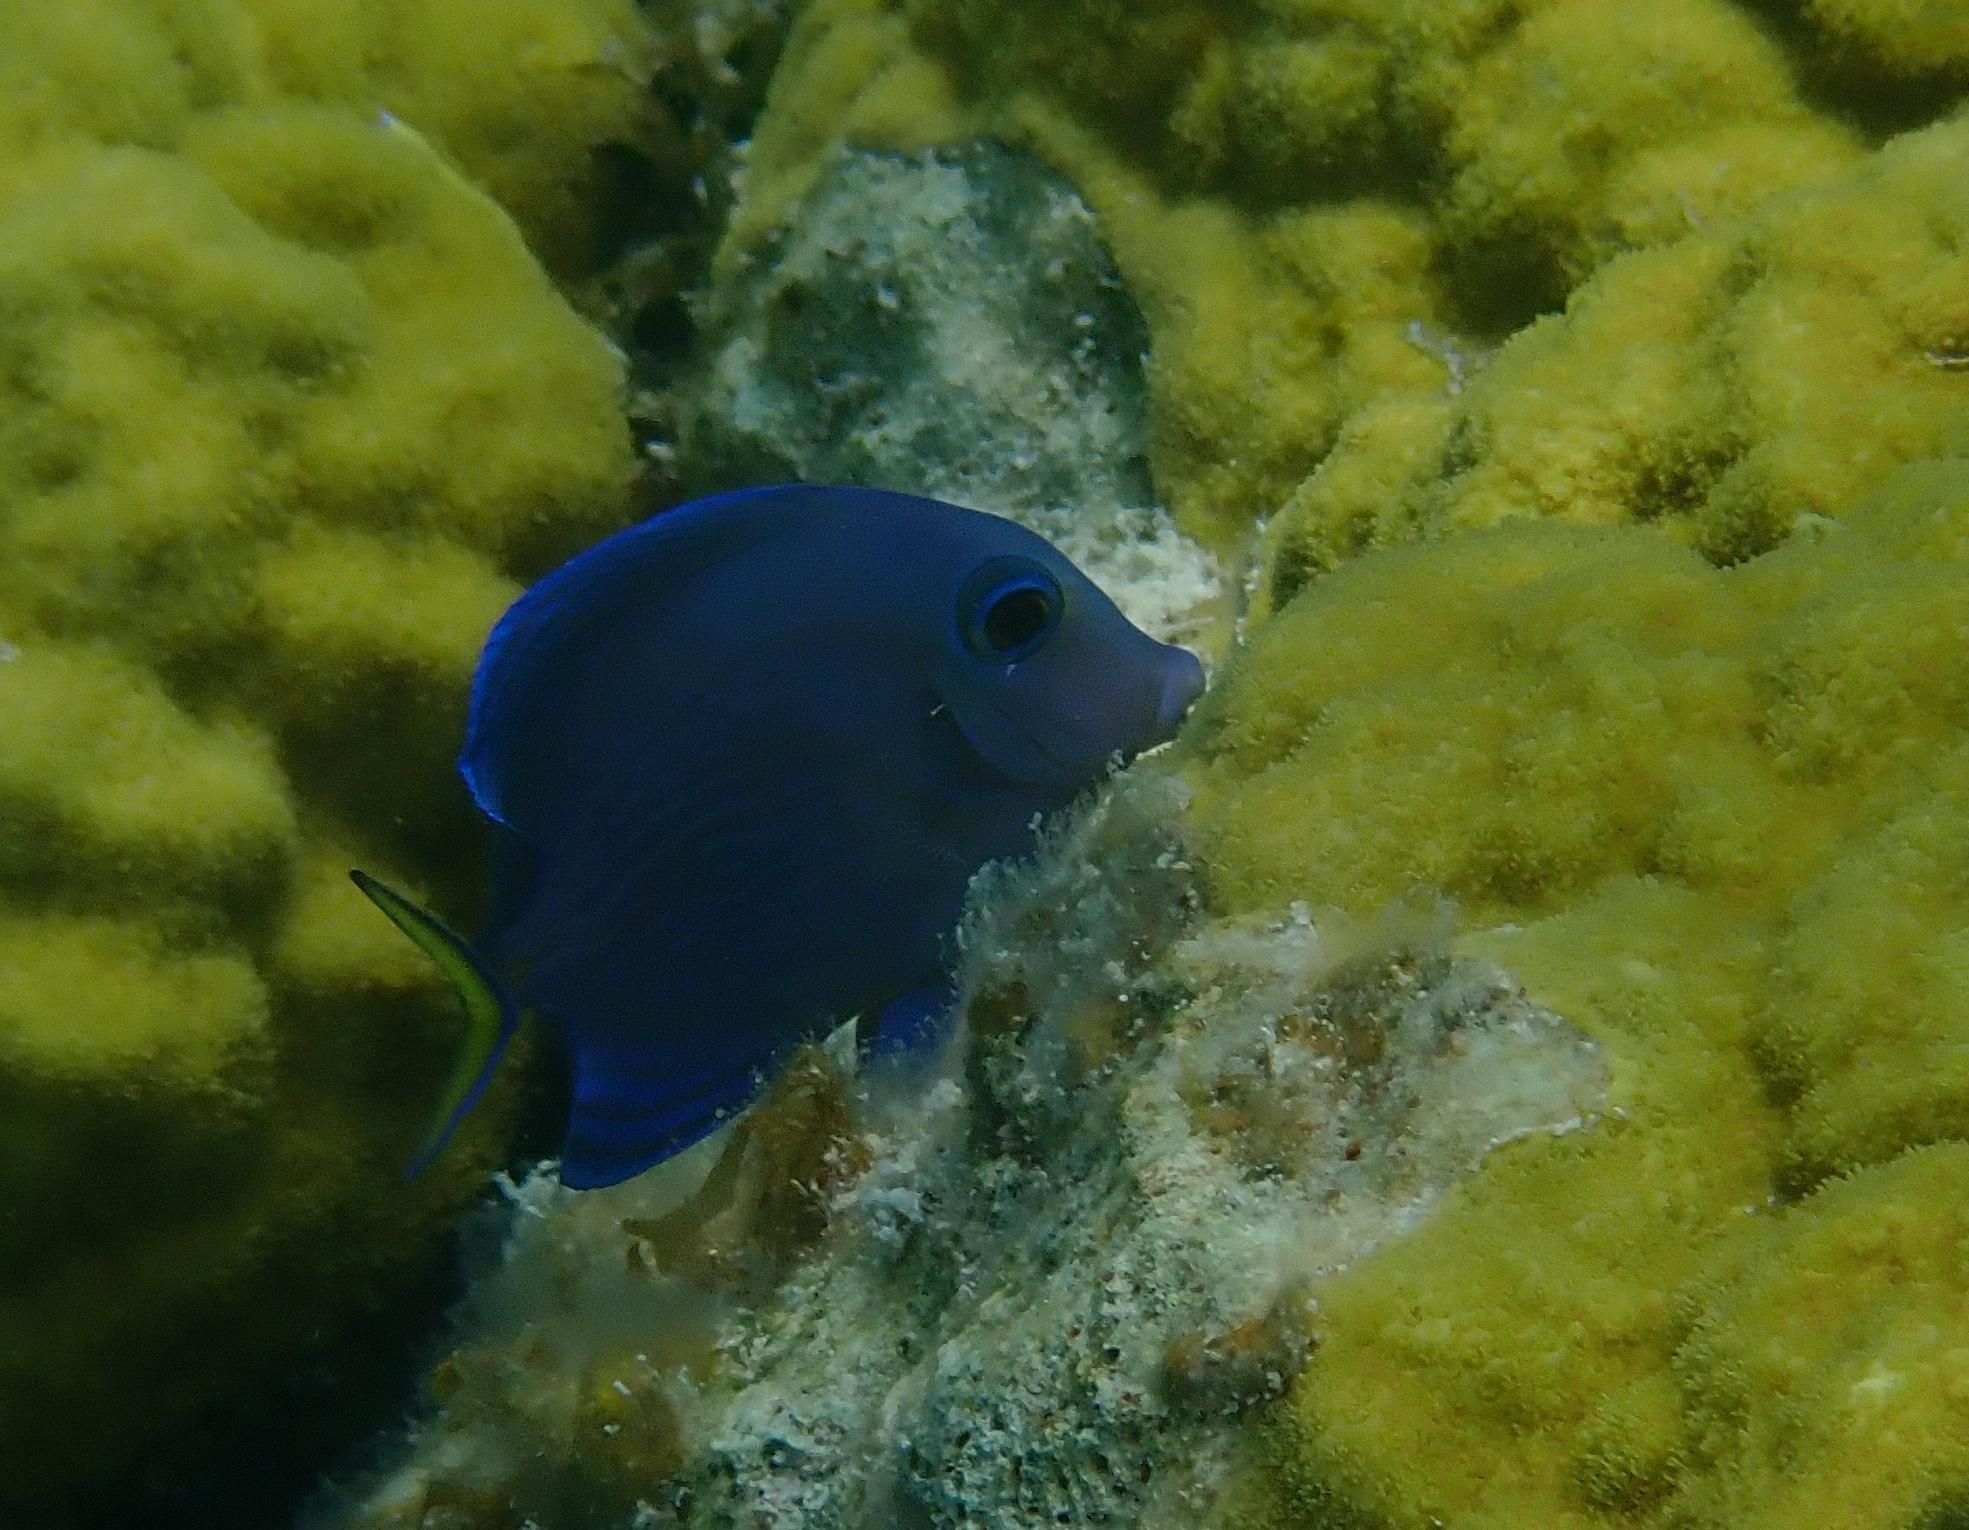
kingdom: Animalia
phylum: Chordata
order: Perciformes
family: Acanthuridae
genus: Acanthurus
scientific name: Acanthurus coeruleus
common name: Blue tang
